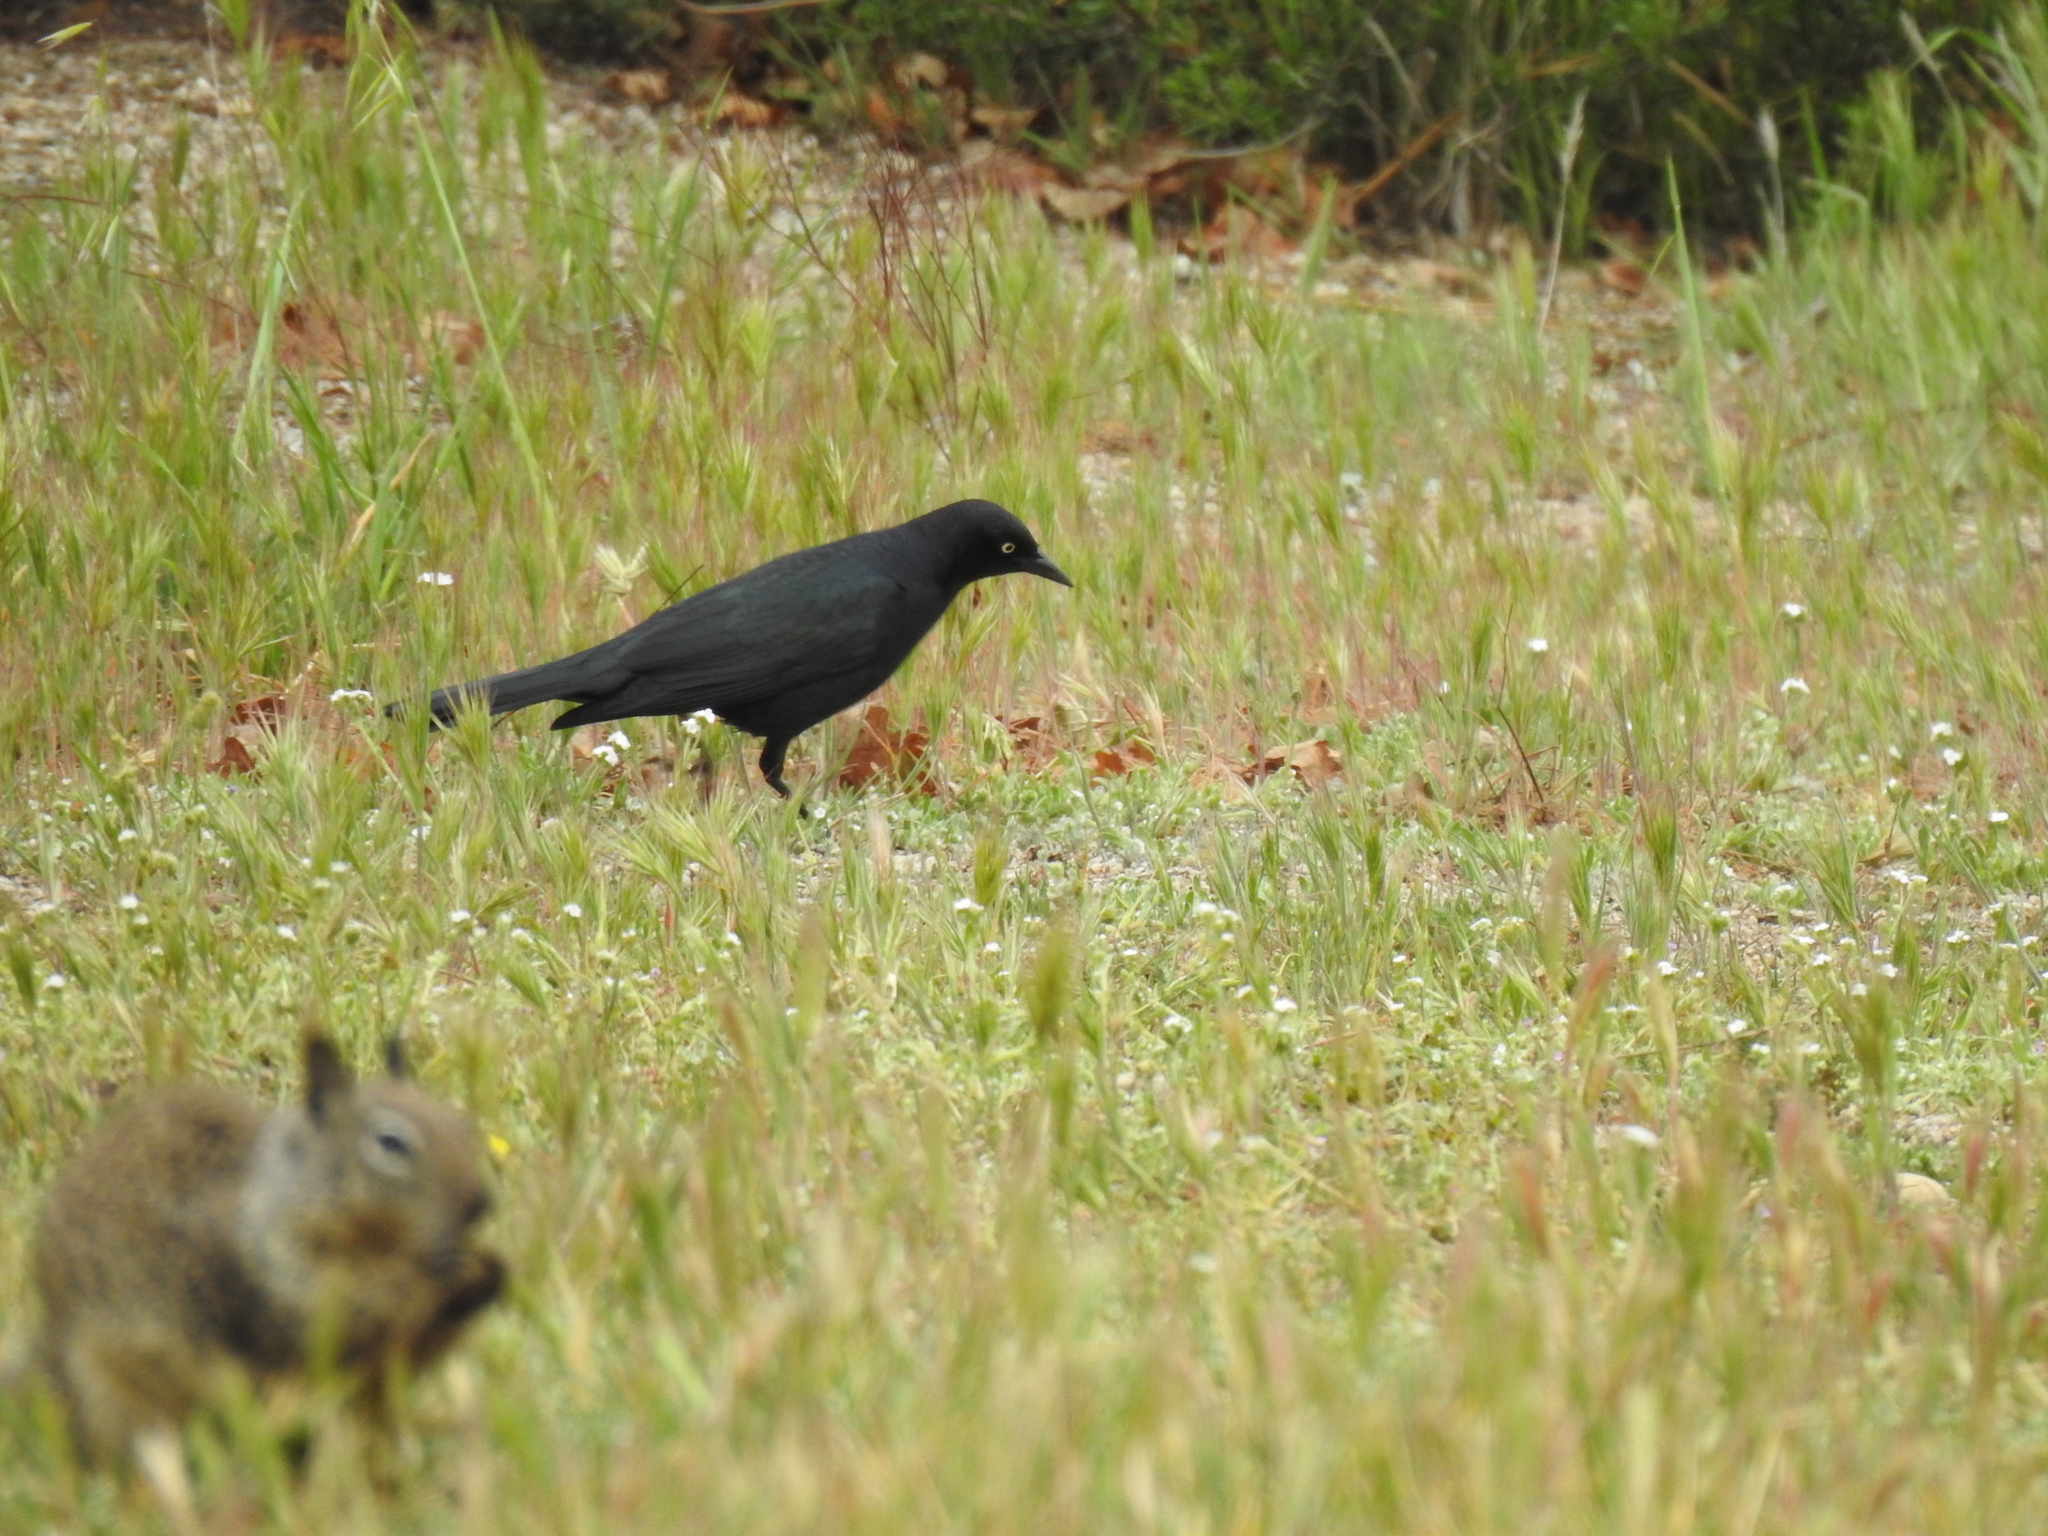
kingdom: Animalia
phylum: Chordata
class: Aves
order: Passeriformes
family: Icteridae
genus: Euphagus
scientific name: Euphagus cyanocephalus
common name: Brewer's blackbird
